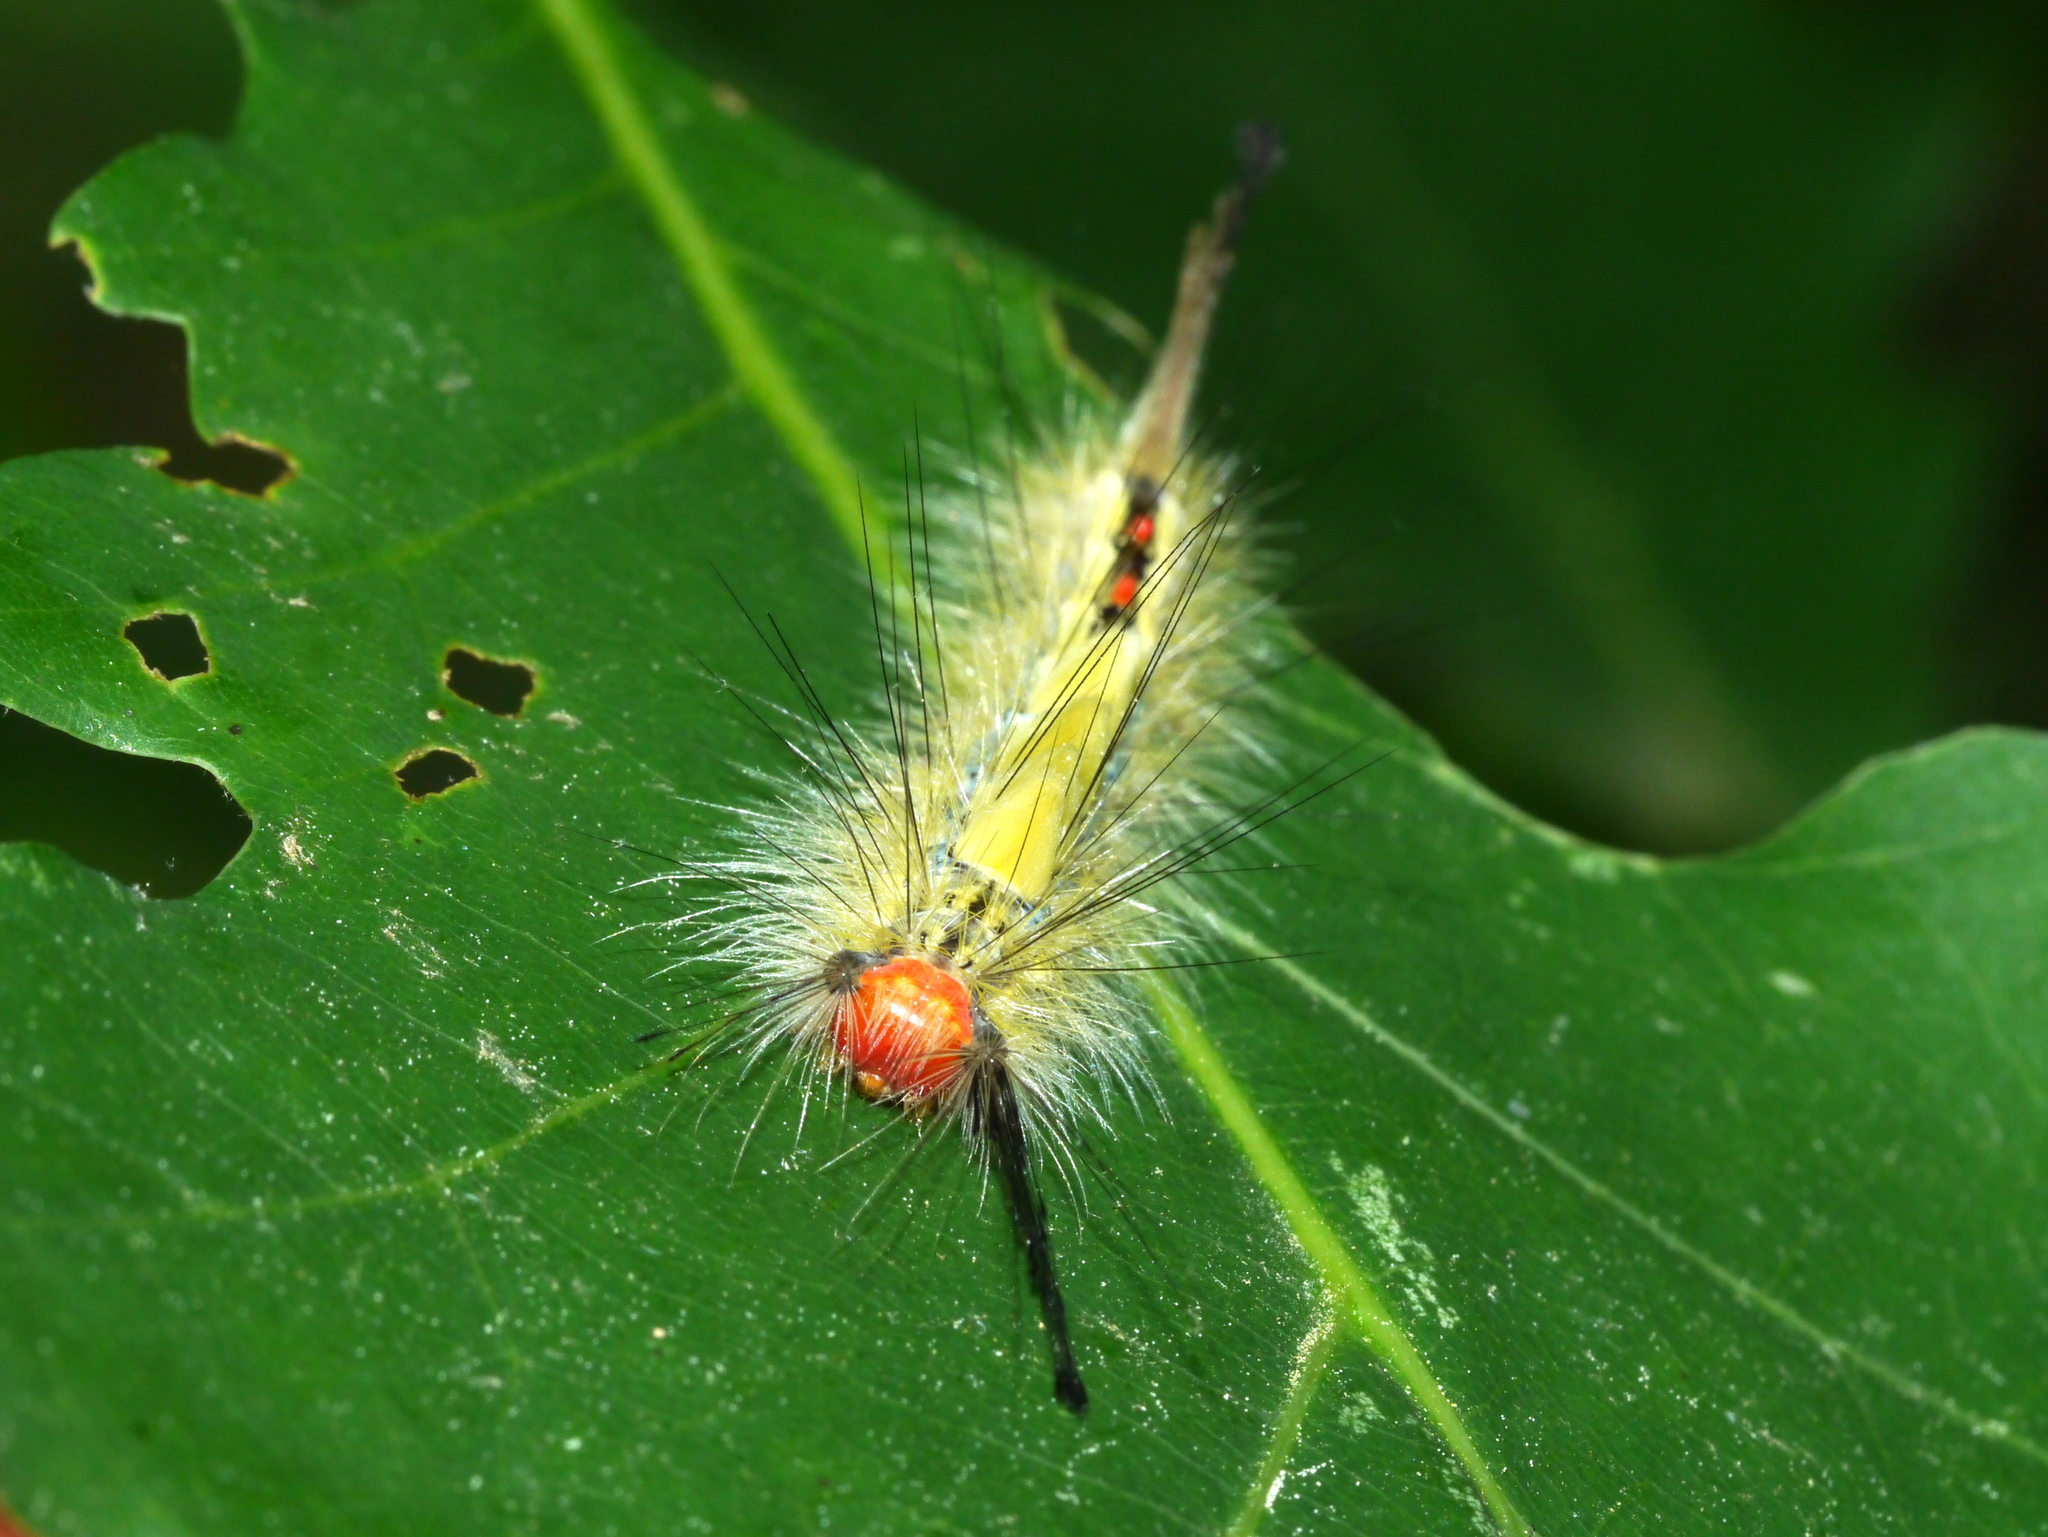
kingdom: Animalia
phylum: Arthropoda
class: Insecta
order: Lepidoptera
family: Erebidae
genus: Orgyia
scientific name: Orgyia leucostigma
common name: White-marked tussock moth
